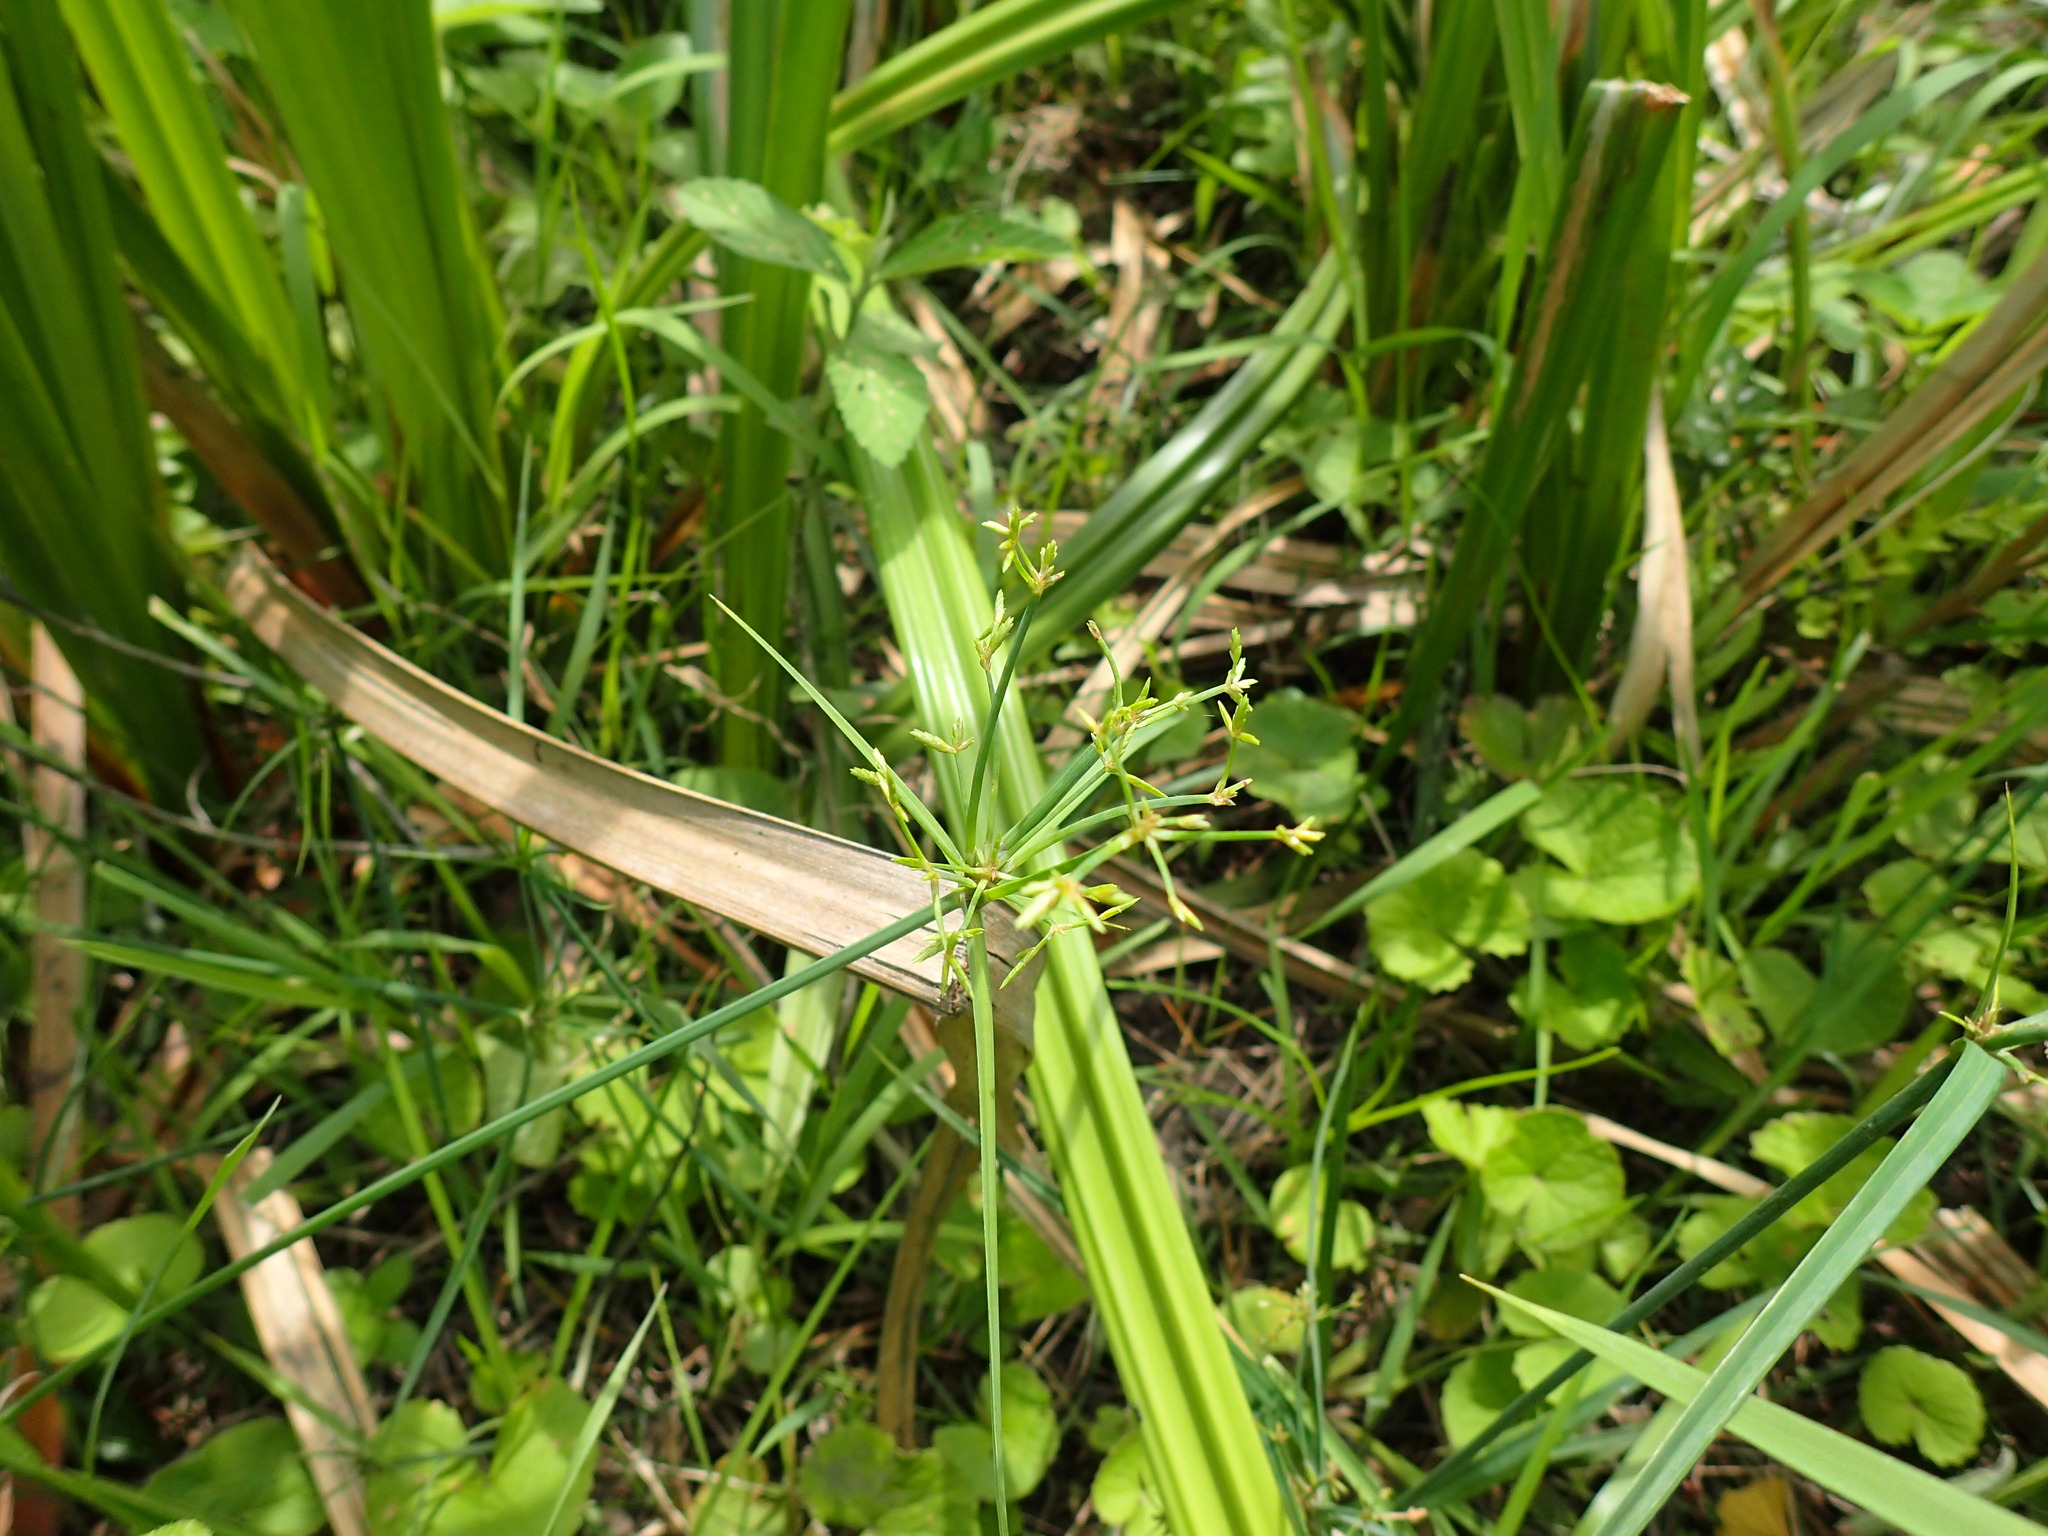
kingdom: Plantae
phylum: Tracheophyta
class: Liliopsida
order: Poales
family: Cyperaceae
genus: Cyperus
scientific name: Cyperus sphaerospermus
